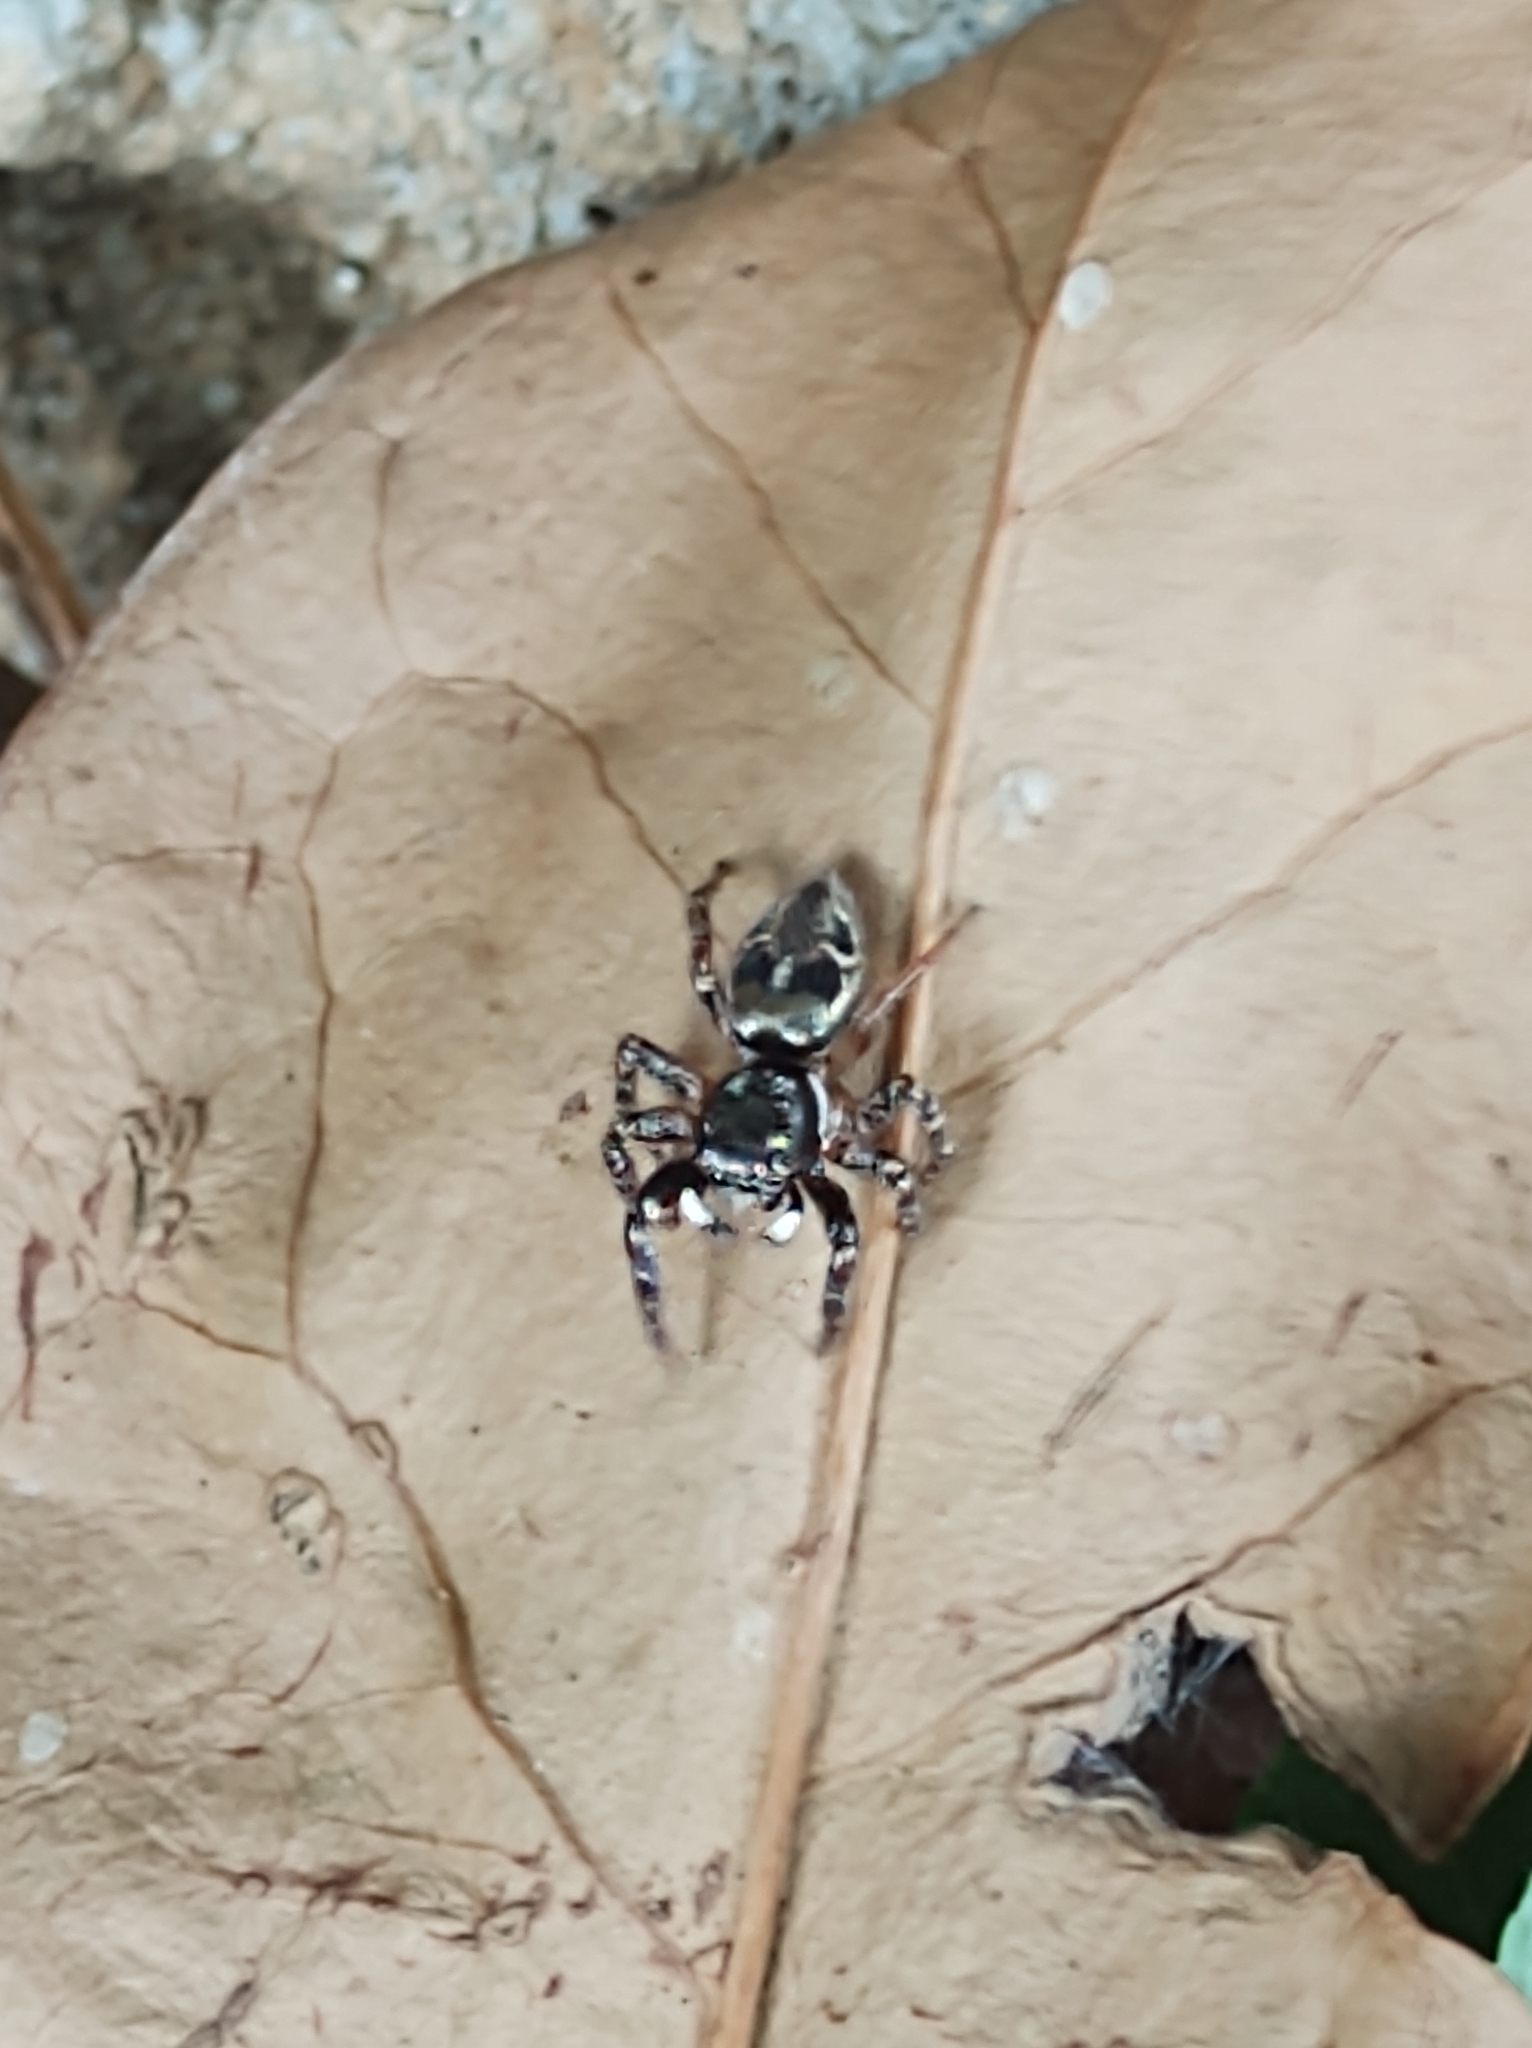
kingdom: Animalia
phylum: Arthropoda
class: Arachnida
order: Araneae
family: Salticidae
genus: Anasaitis
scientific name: Anasaitis canosa
